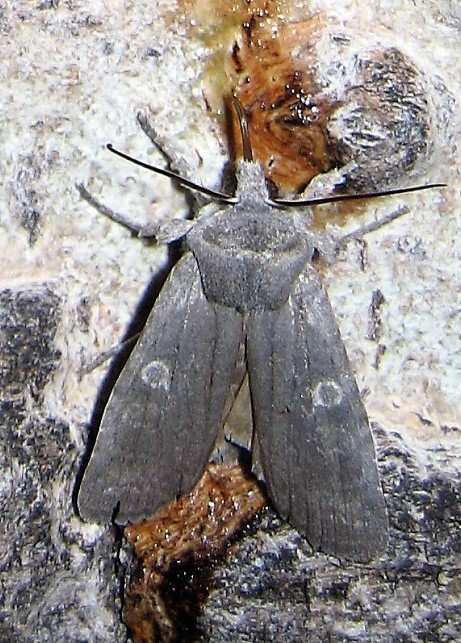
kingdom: Animalia
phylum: Arthropoda
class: Insecta
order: Lepidoptera
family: Noctuidae
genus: Lithophane
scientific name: Lithophane unimoda
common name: Dowdy pinion
